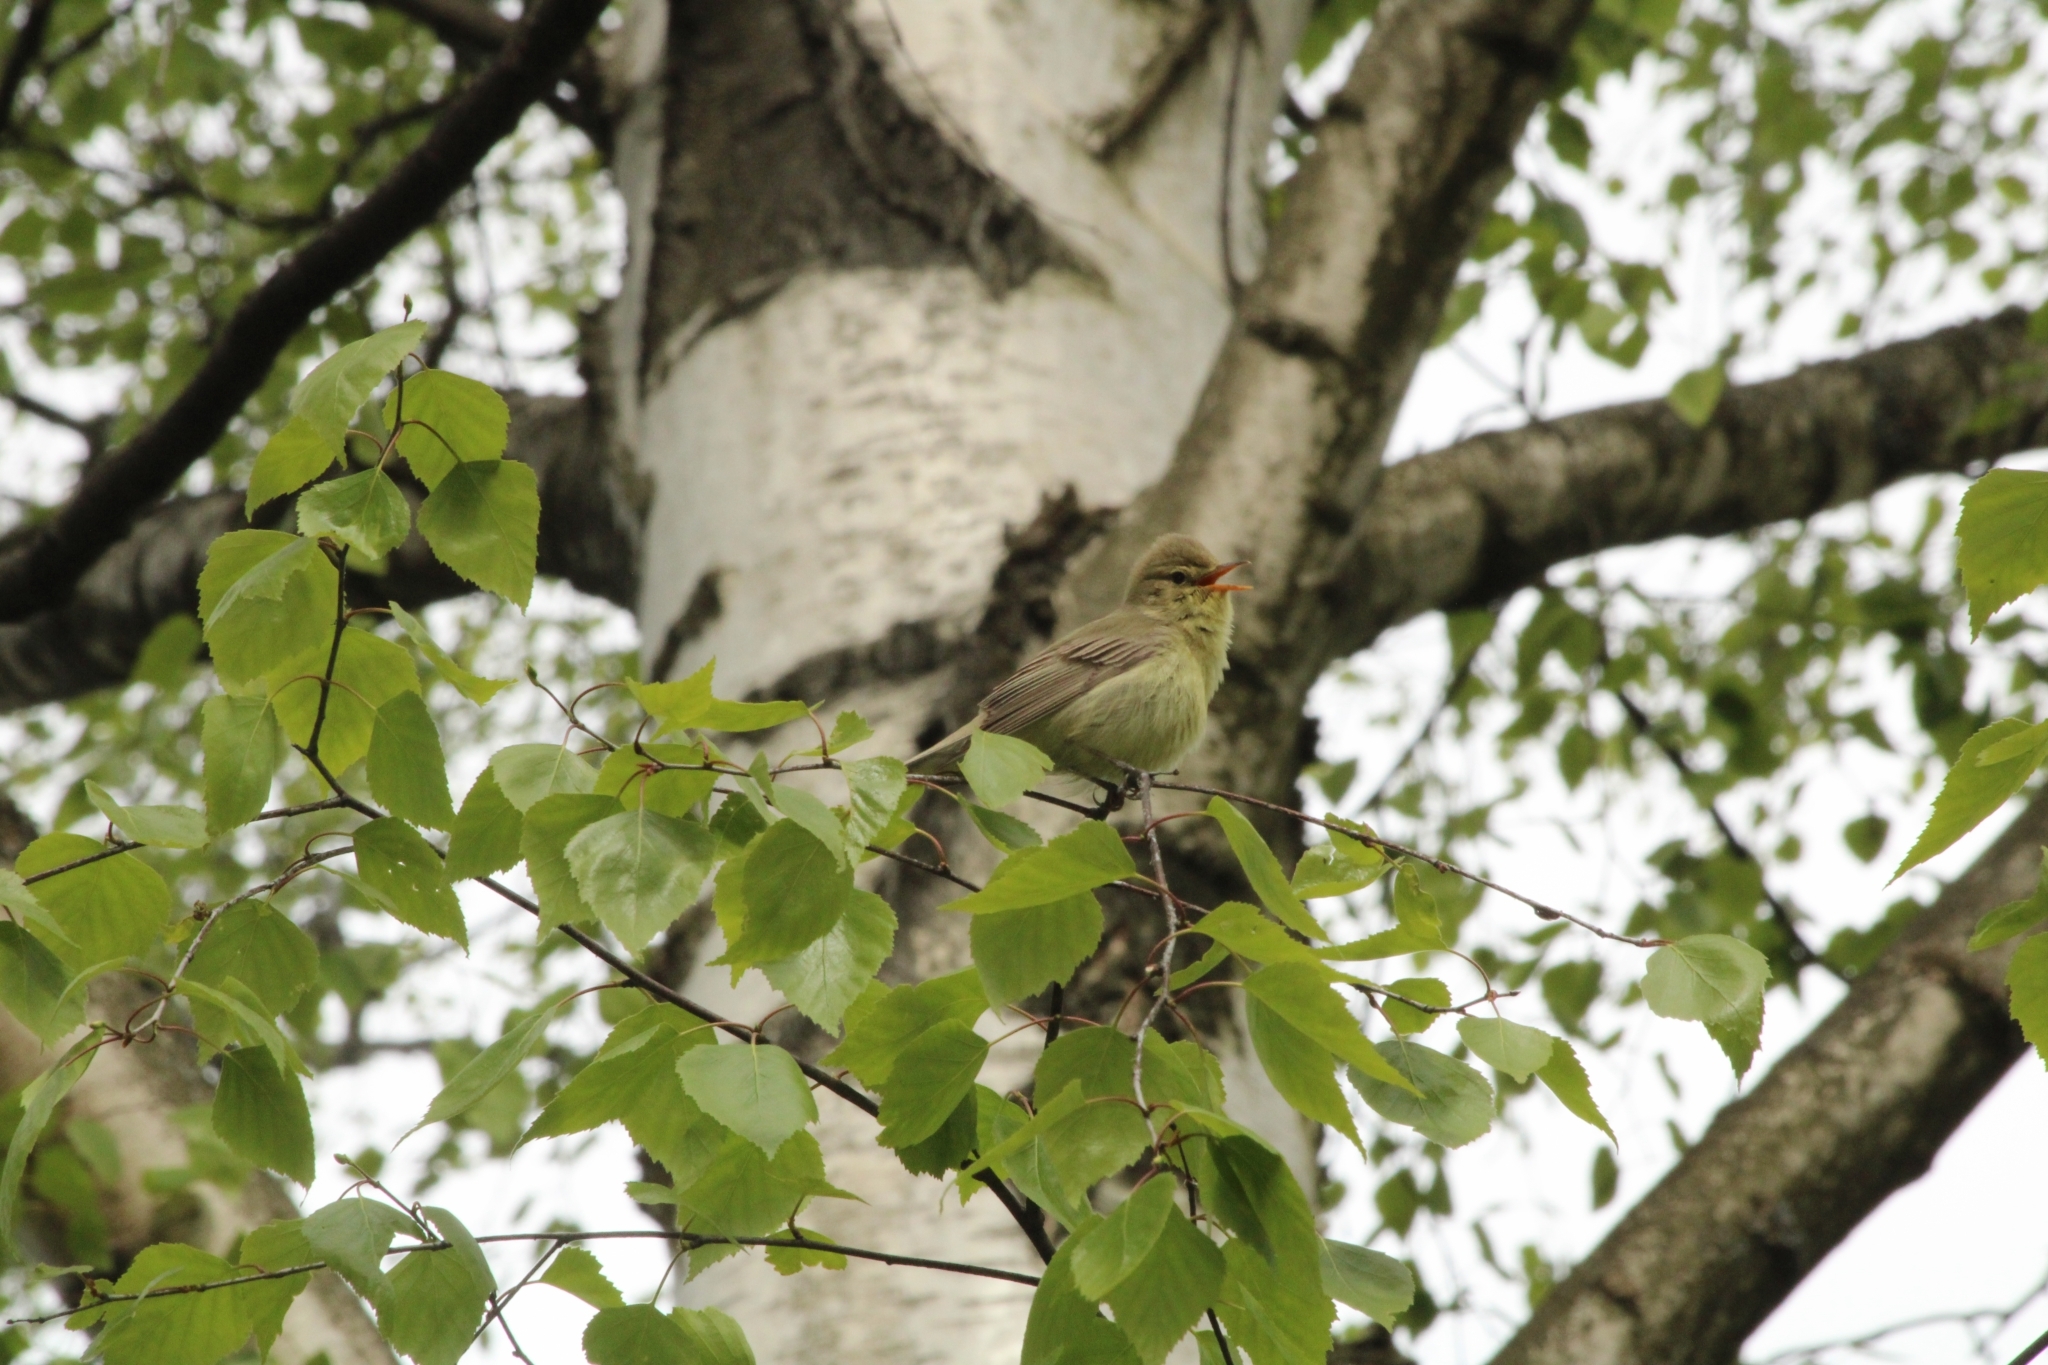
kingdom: Animalia
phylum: Chordata
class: Aves
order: Passeriformes
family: Acrocephalidae
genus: Hippolais
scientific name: Hippolais icterina
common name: Icterine warbler
